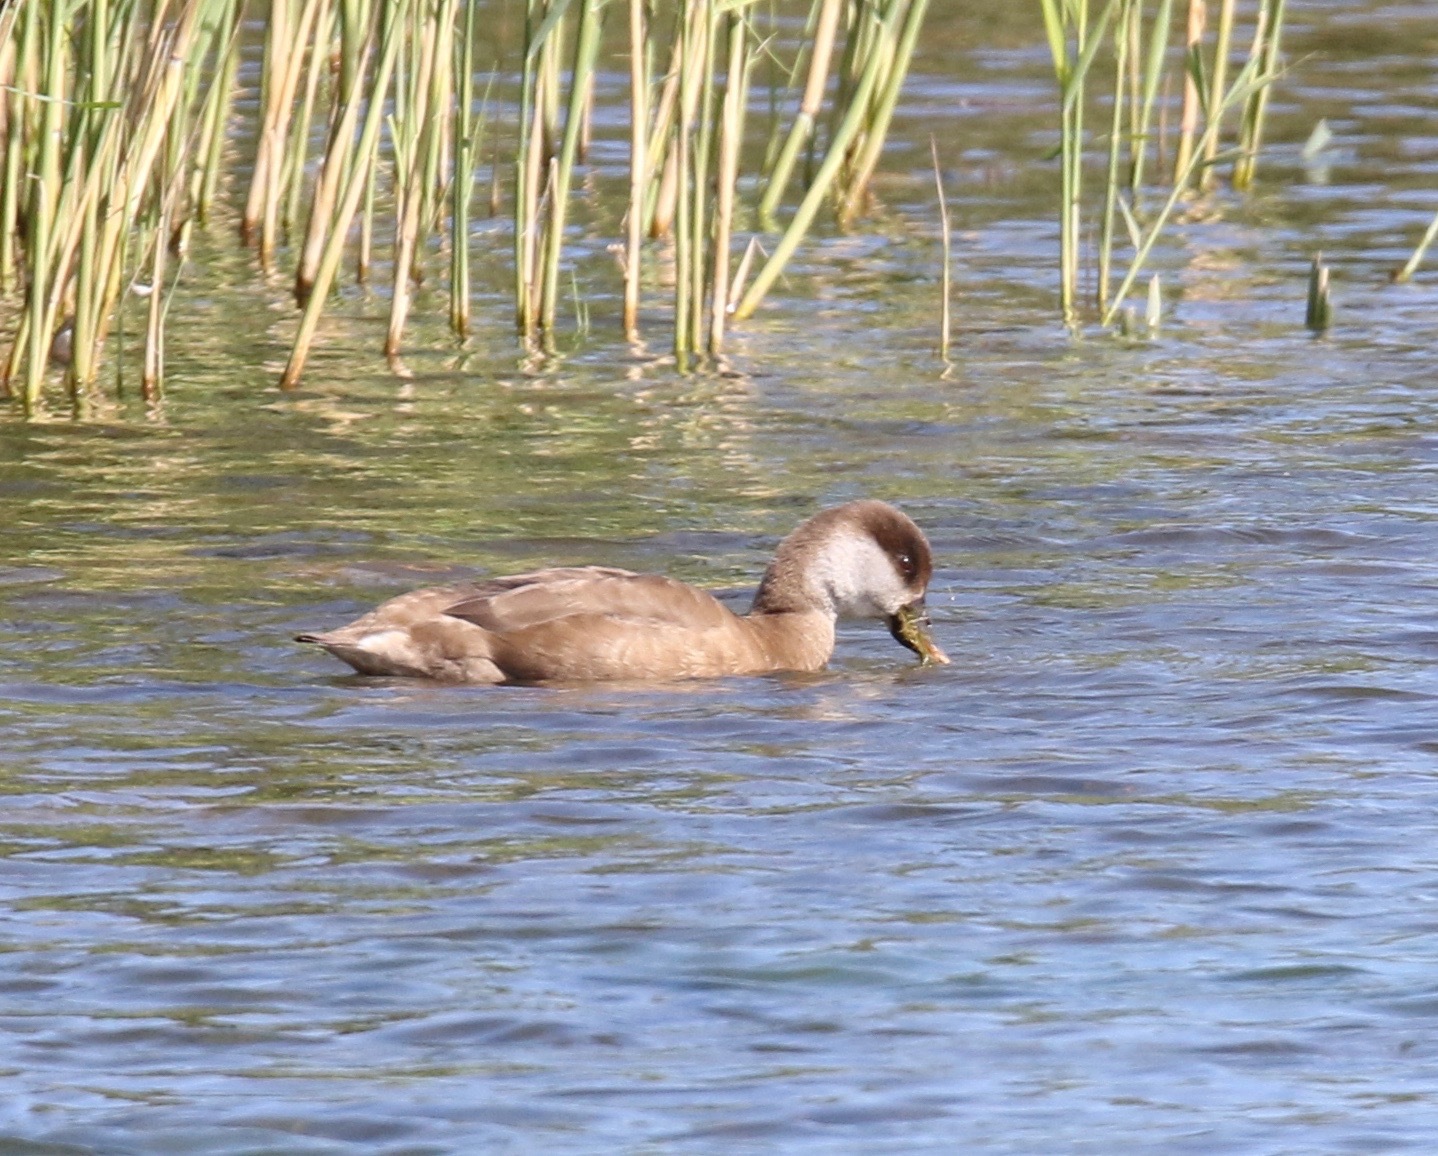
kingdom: Animalia
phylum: Chordata
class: Aves
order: Anseriformes
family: Anatidae
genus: Netta
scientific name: Netta rufina
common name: Red-crested pochard
